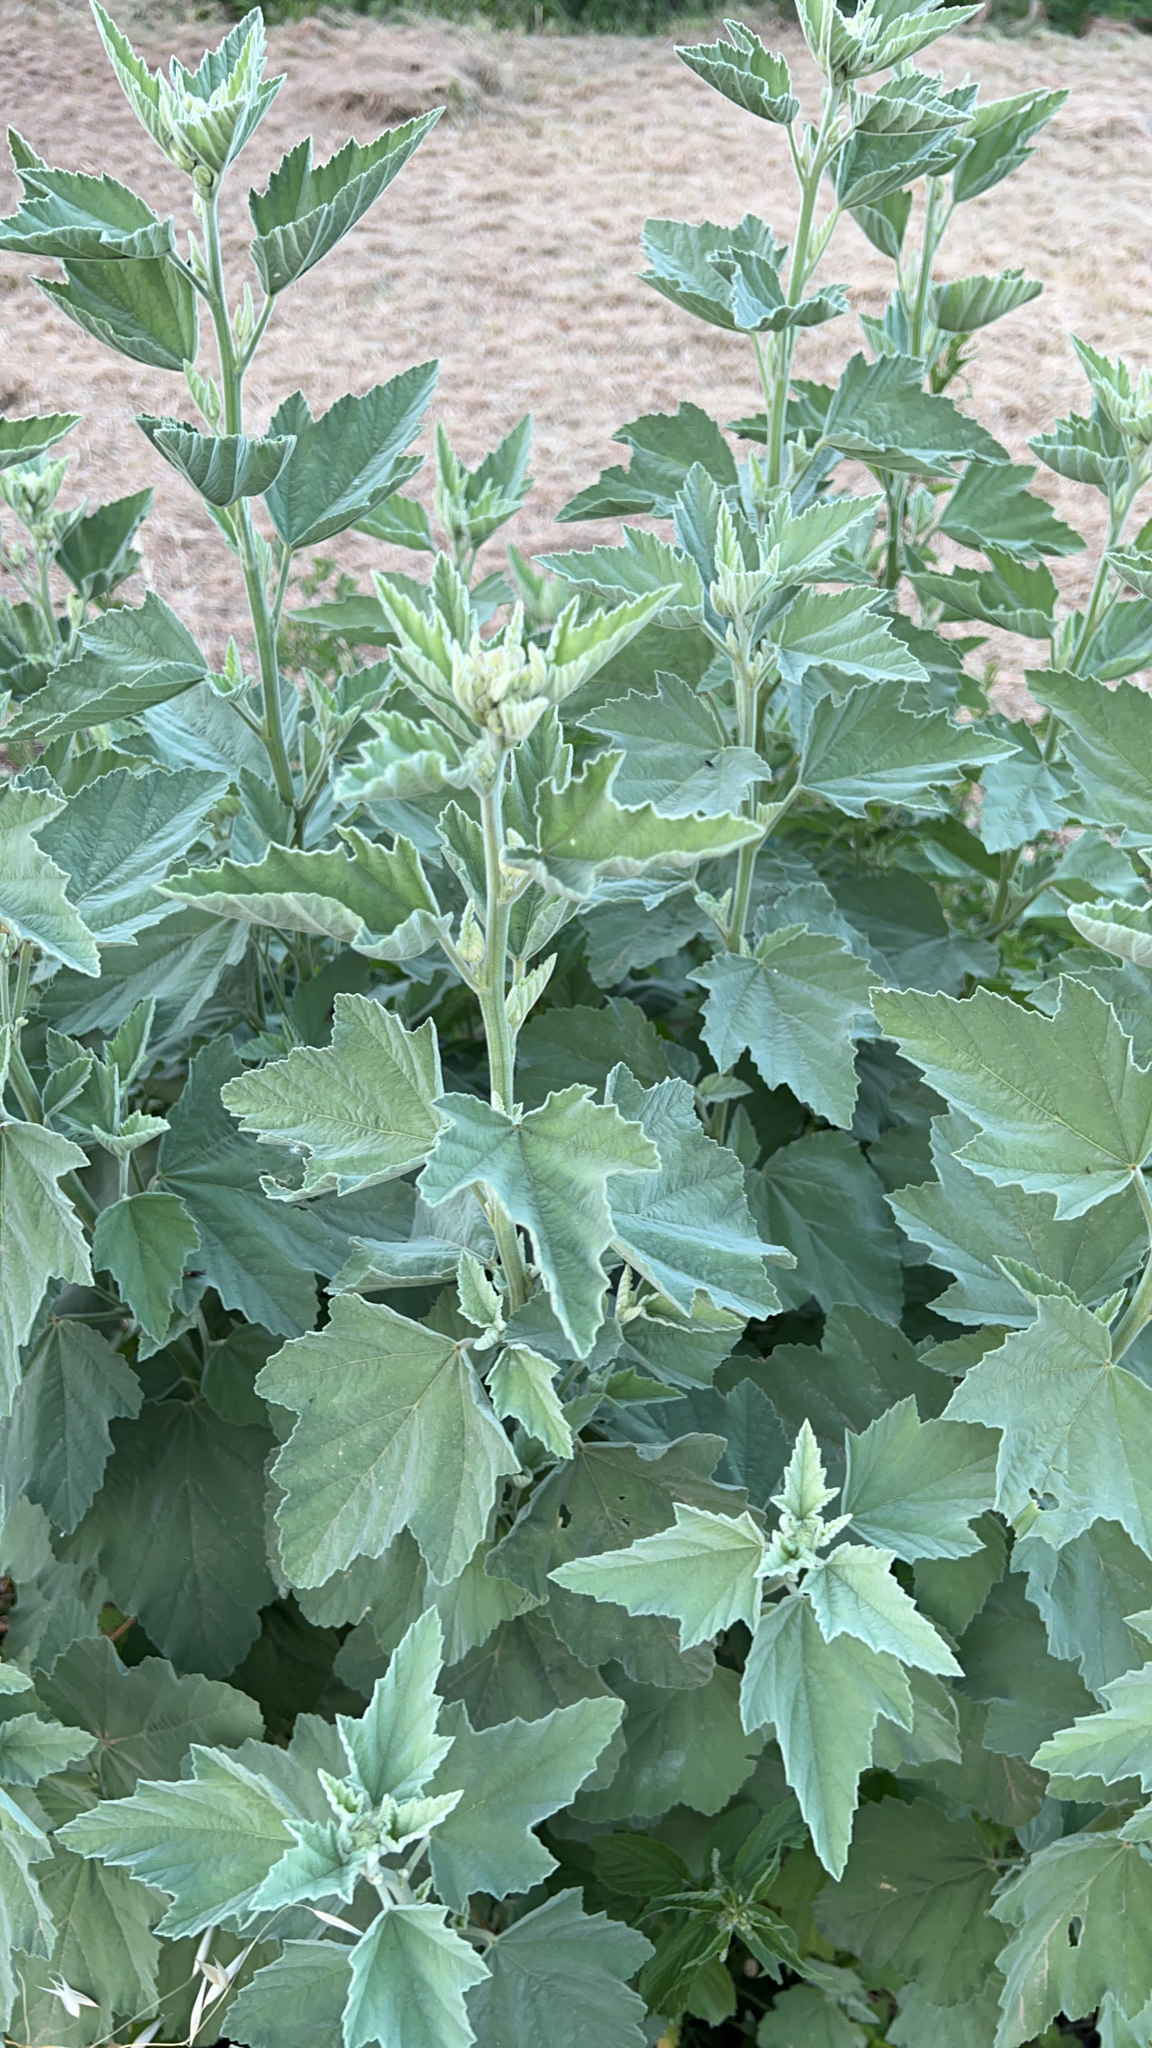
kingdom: Plantae
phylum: Tracheophyta
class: Magnoliopsida
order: Malvales
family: Malvaceae
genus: Althaea
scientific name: Althaea officinalis
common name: Marsh-mallow
